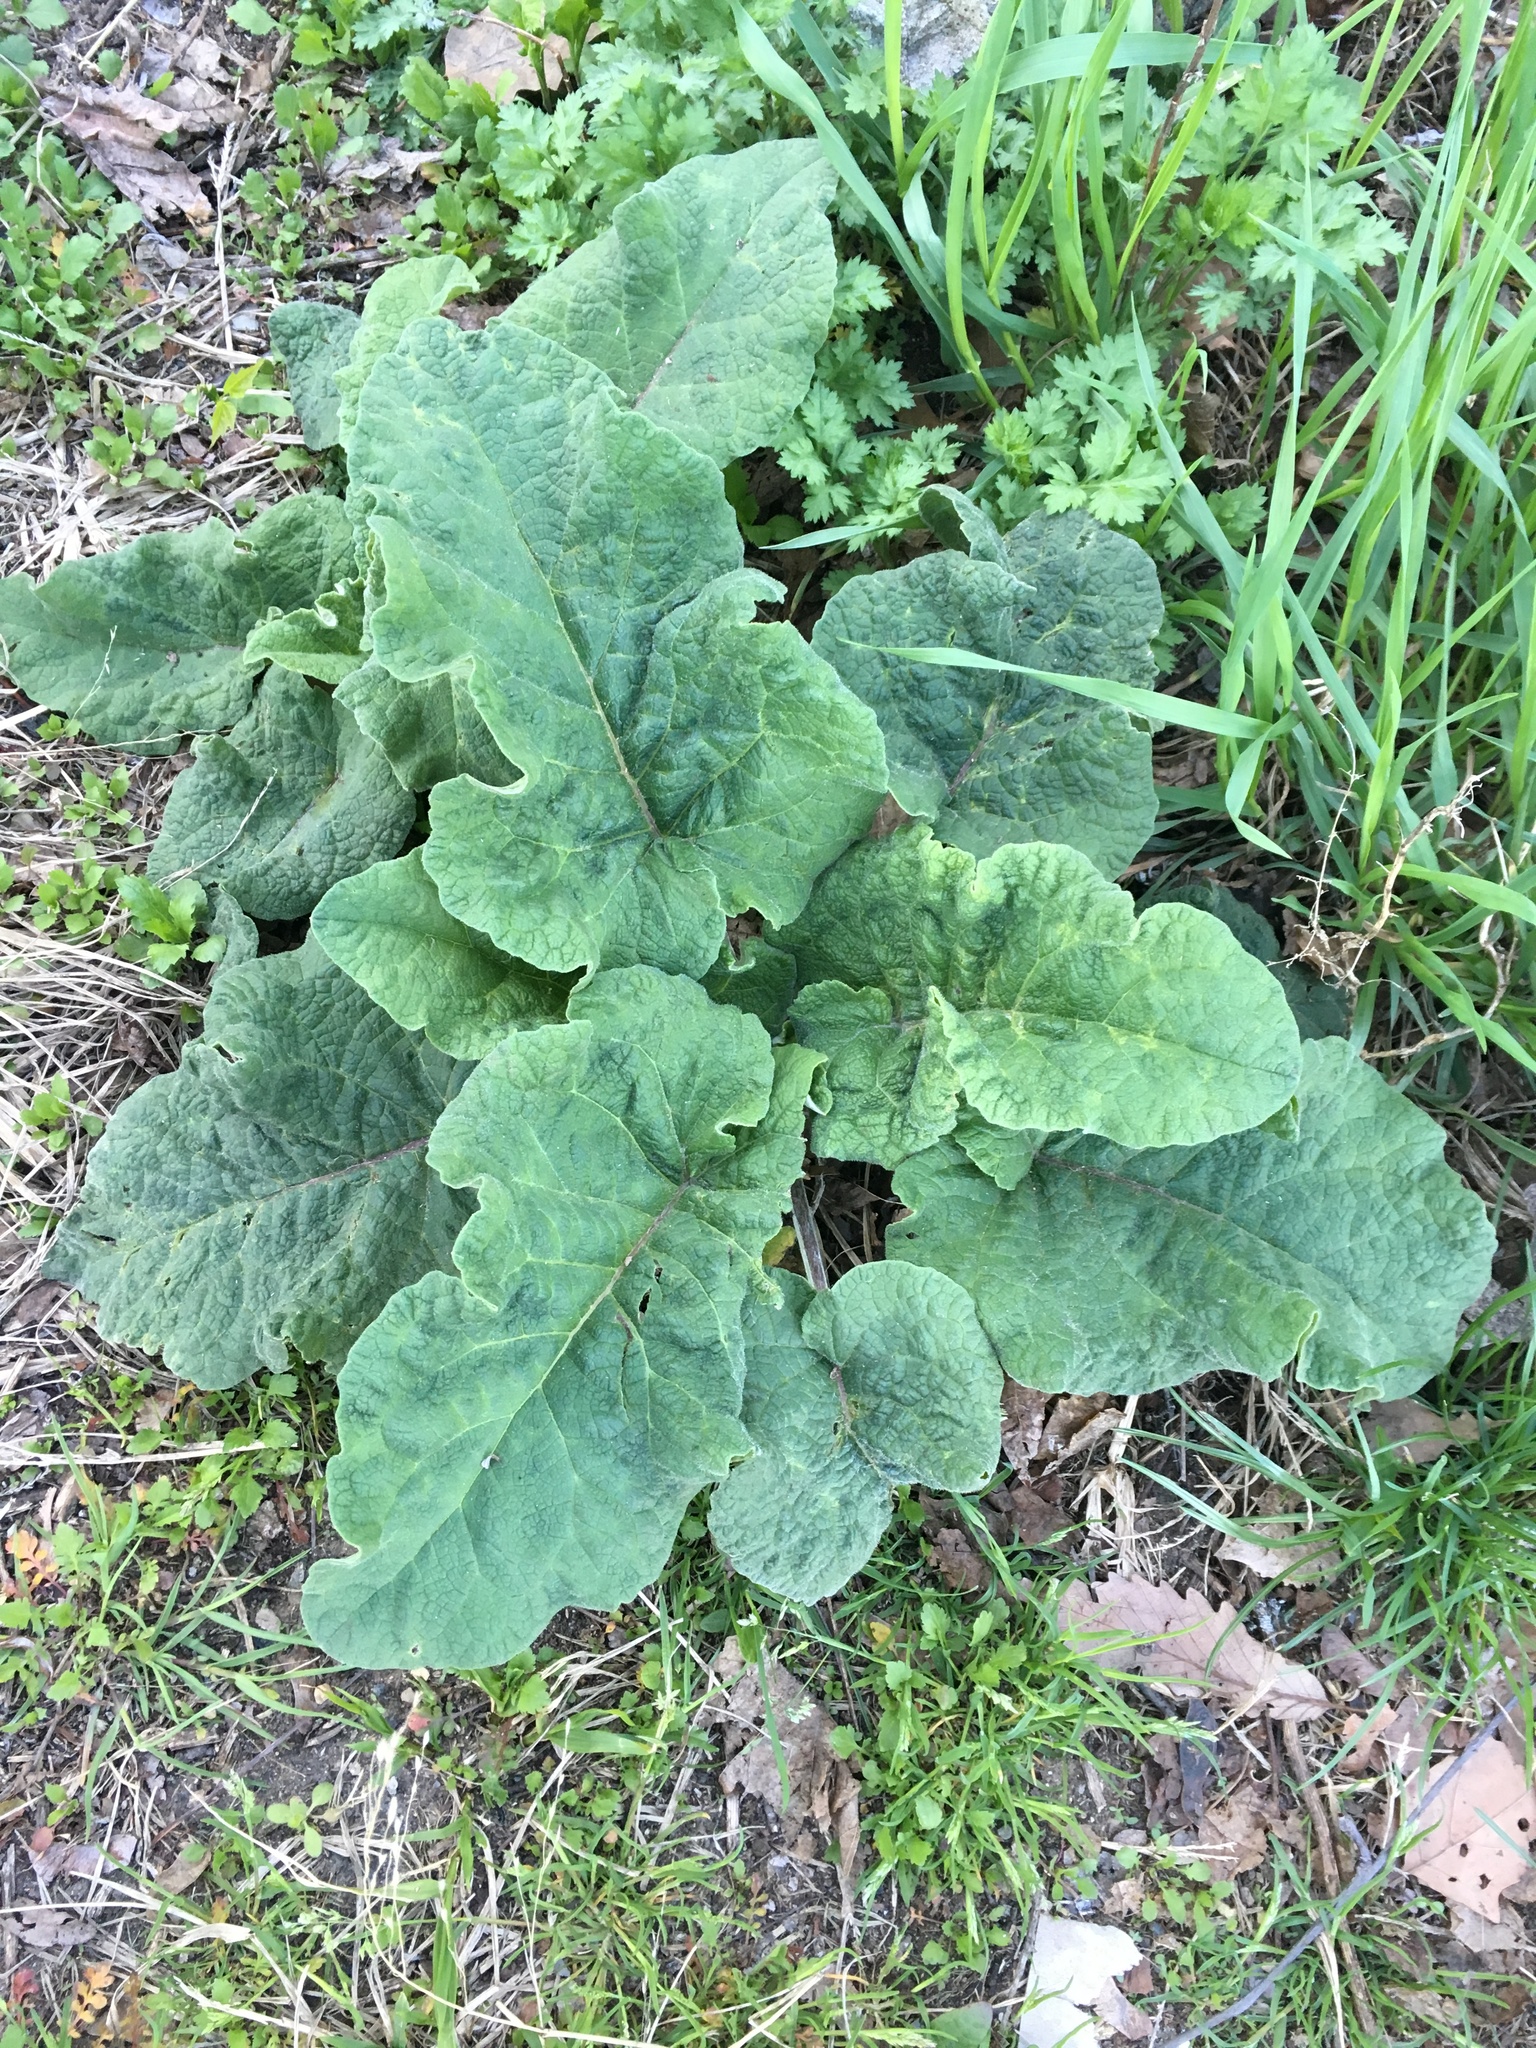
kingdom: Plantae
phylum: Tracheophyta
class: Magnoliopsida
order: Asterales
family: Asteraceae
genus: Arctium
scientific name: Arctium
